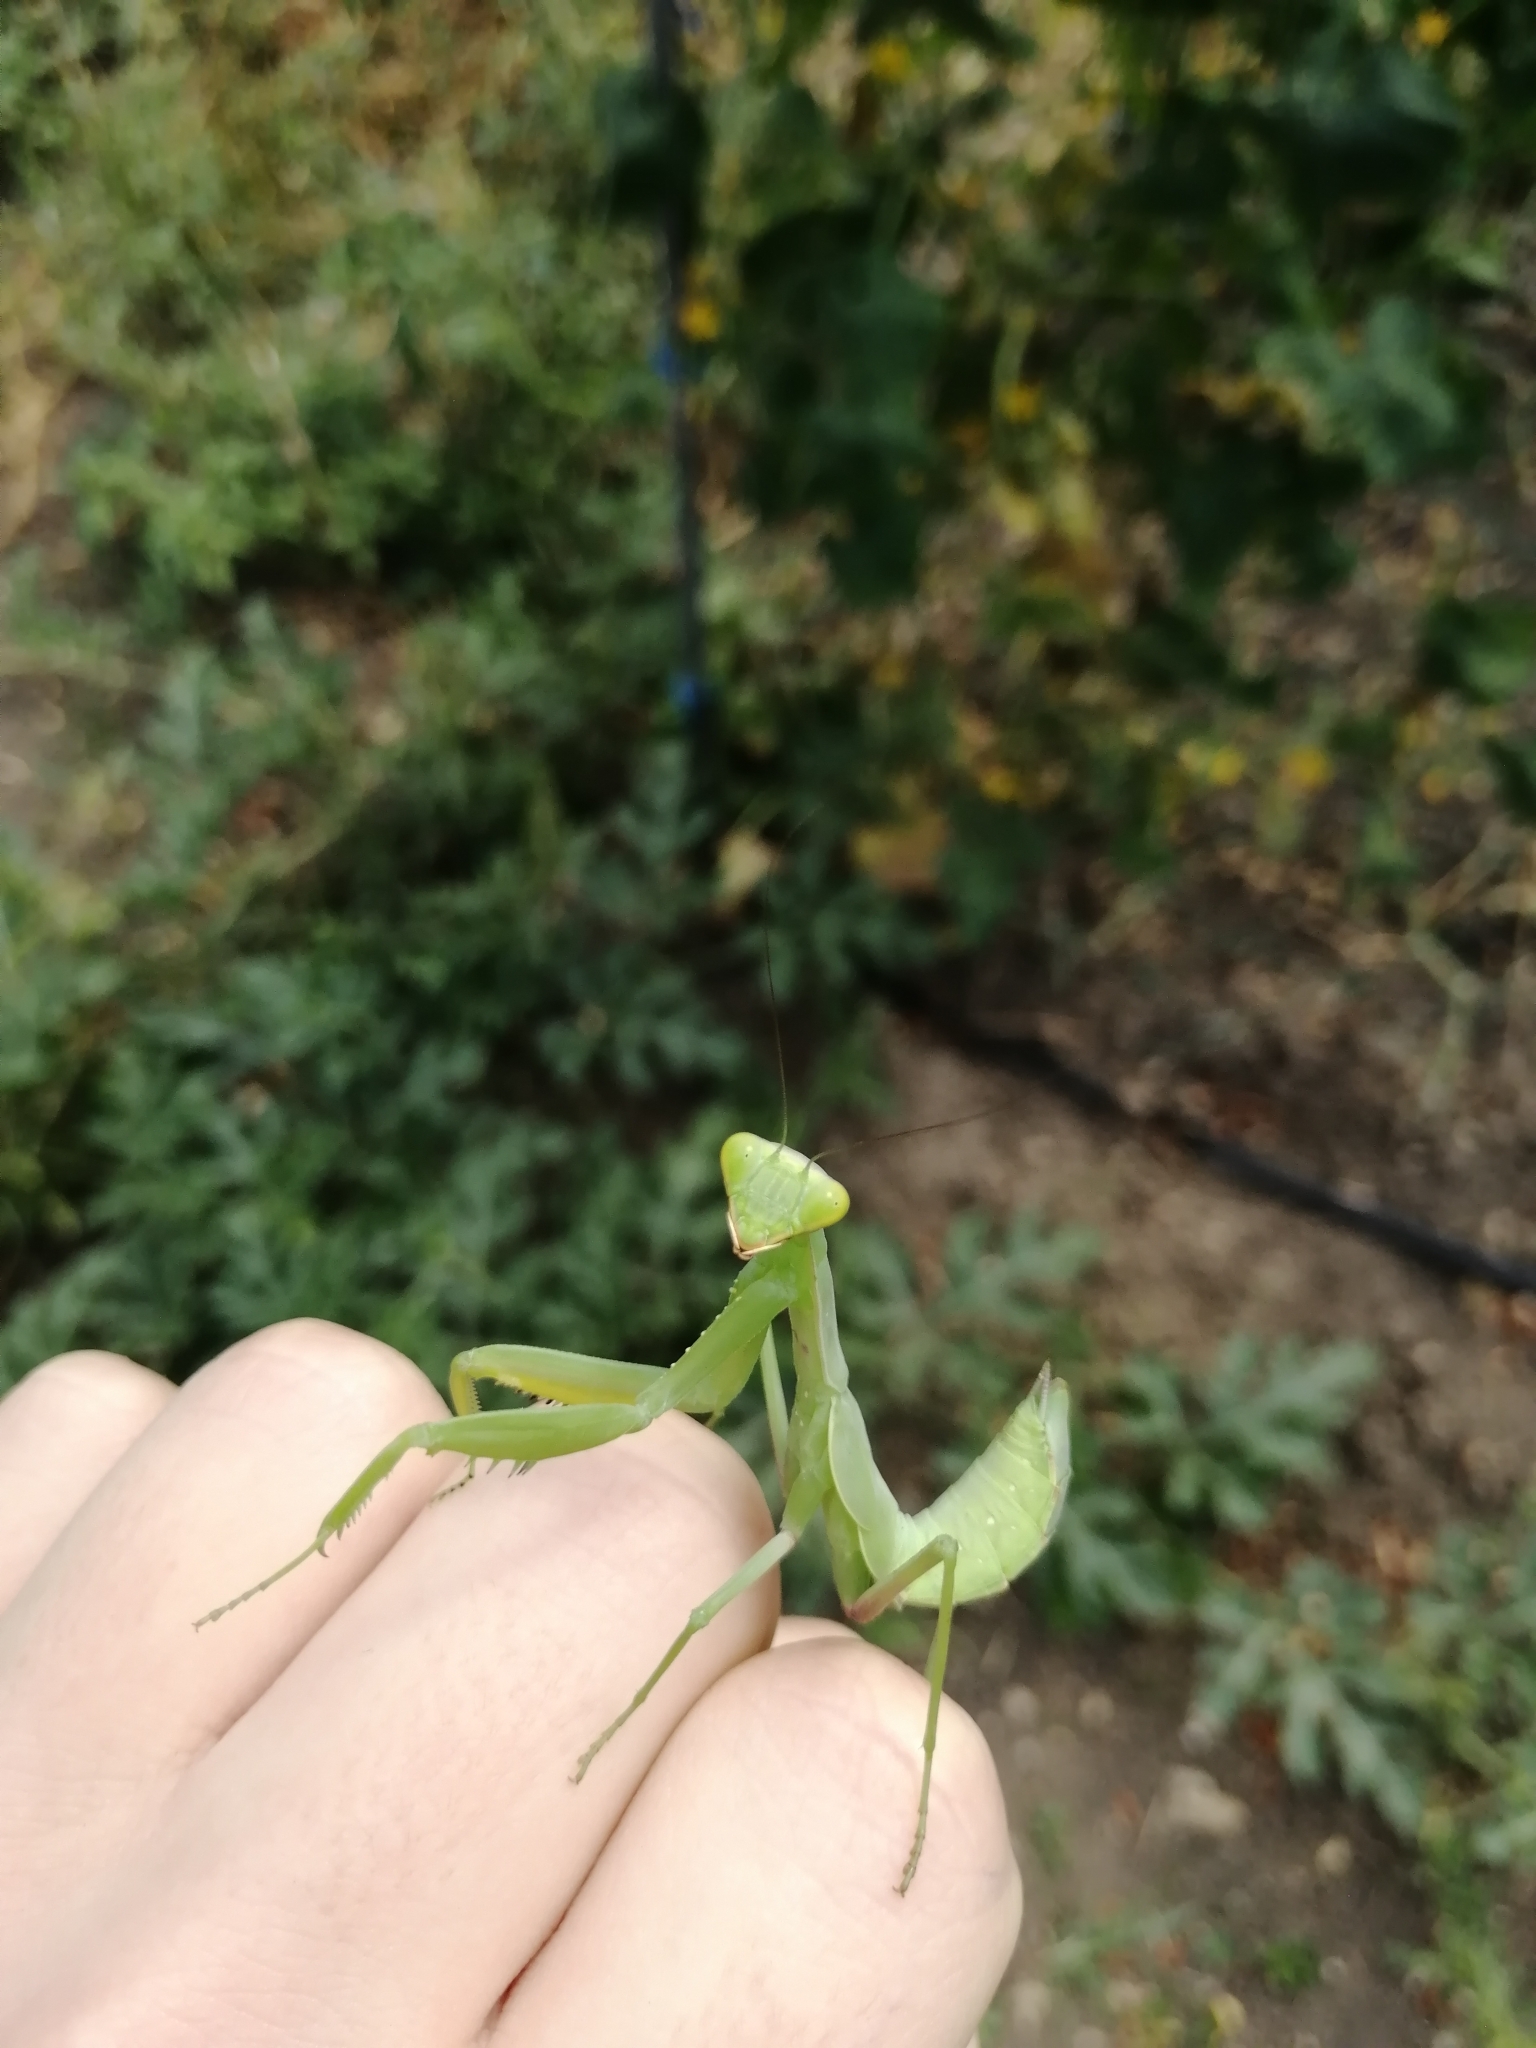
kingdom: Animalia
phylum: Arthropoda
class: Insecta
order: Mantodea
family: Mantidae
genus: Hierodula
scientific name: Hierodula transcaucasica
